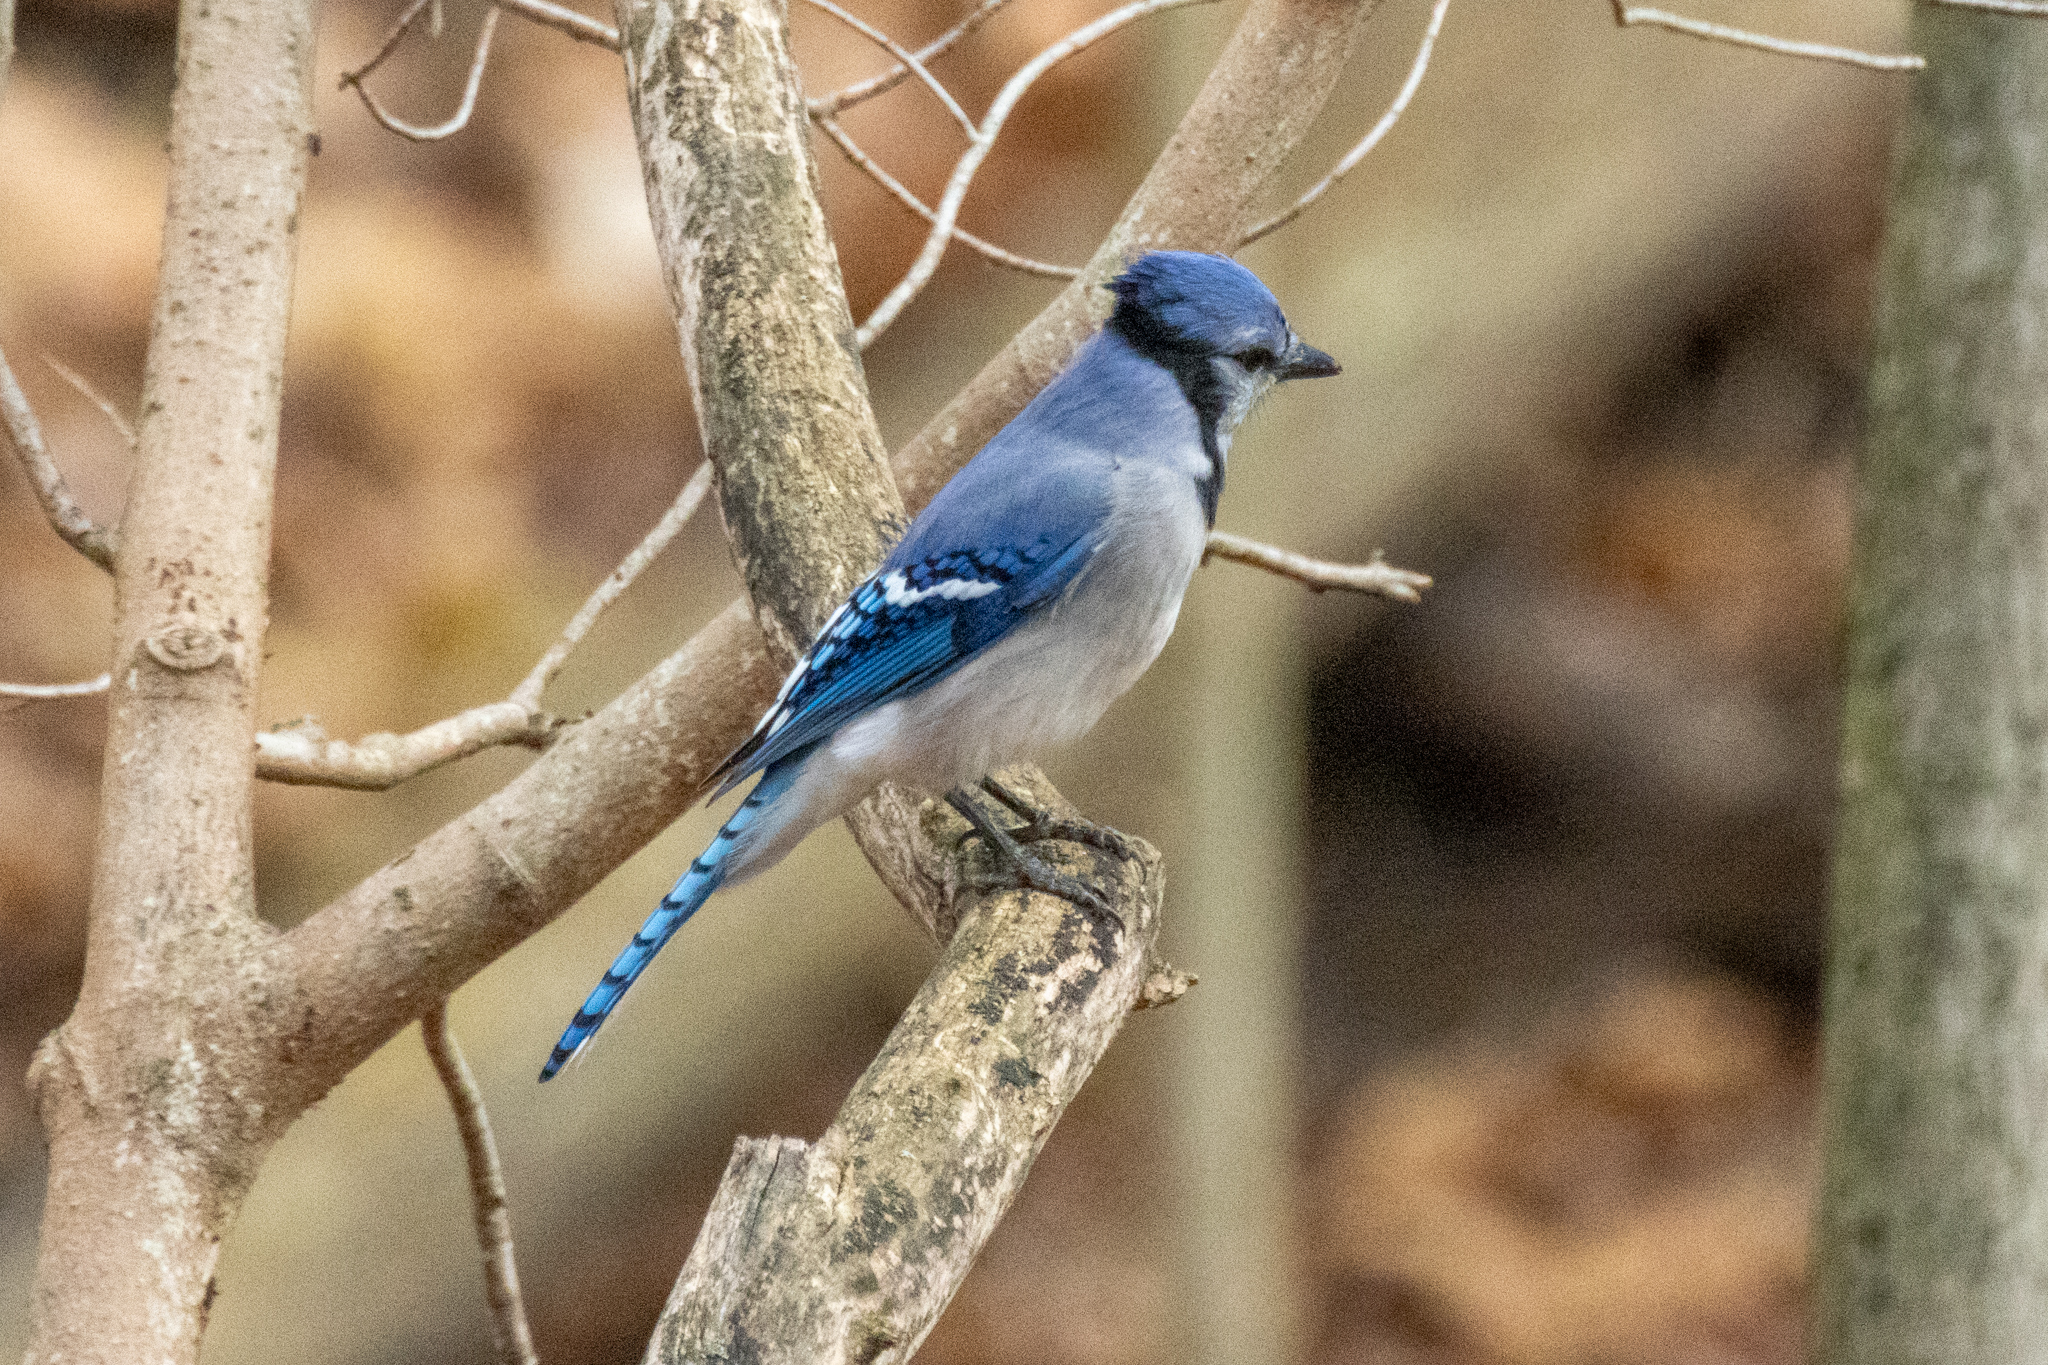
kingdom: Animalia
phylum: Chordata
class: Aves
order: Passeriformes
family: Corvidae
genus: Cyanocitta
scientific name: Cyanocitta cristata
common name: Blue jay
